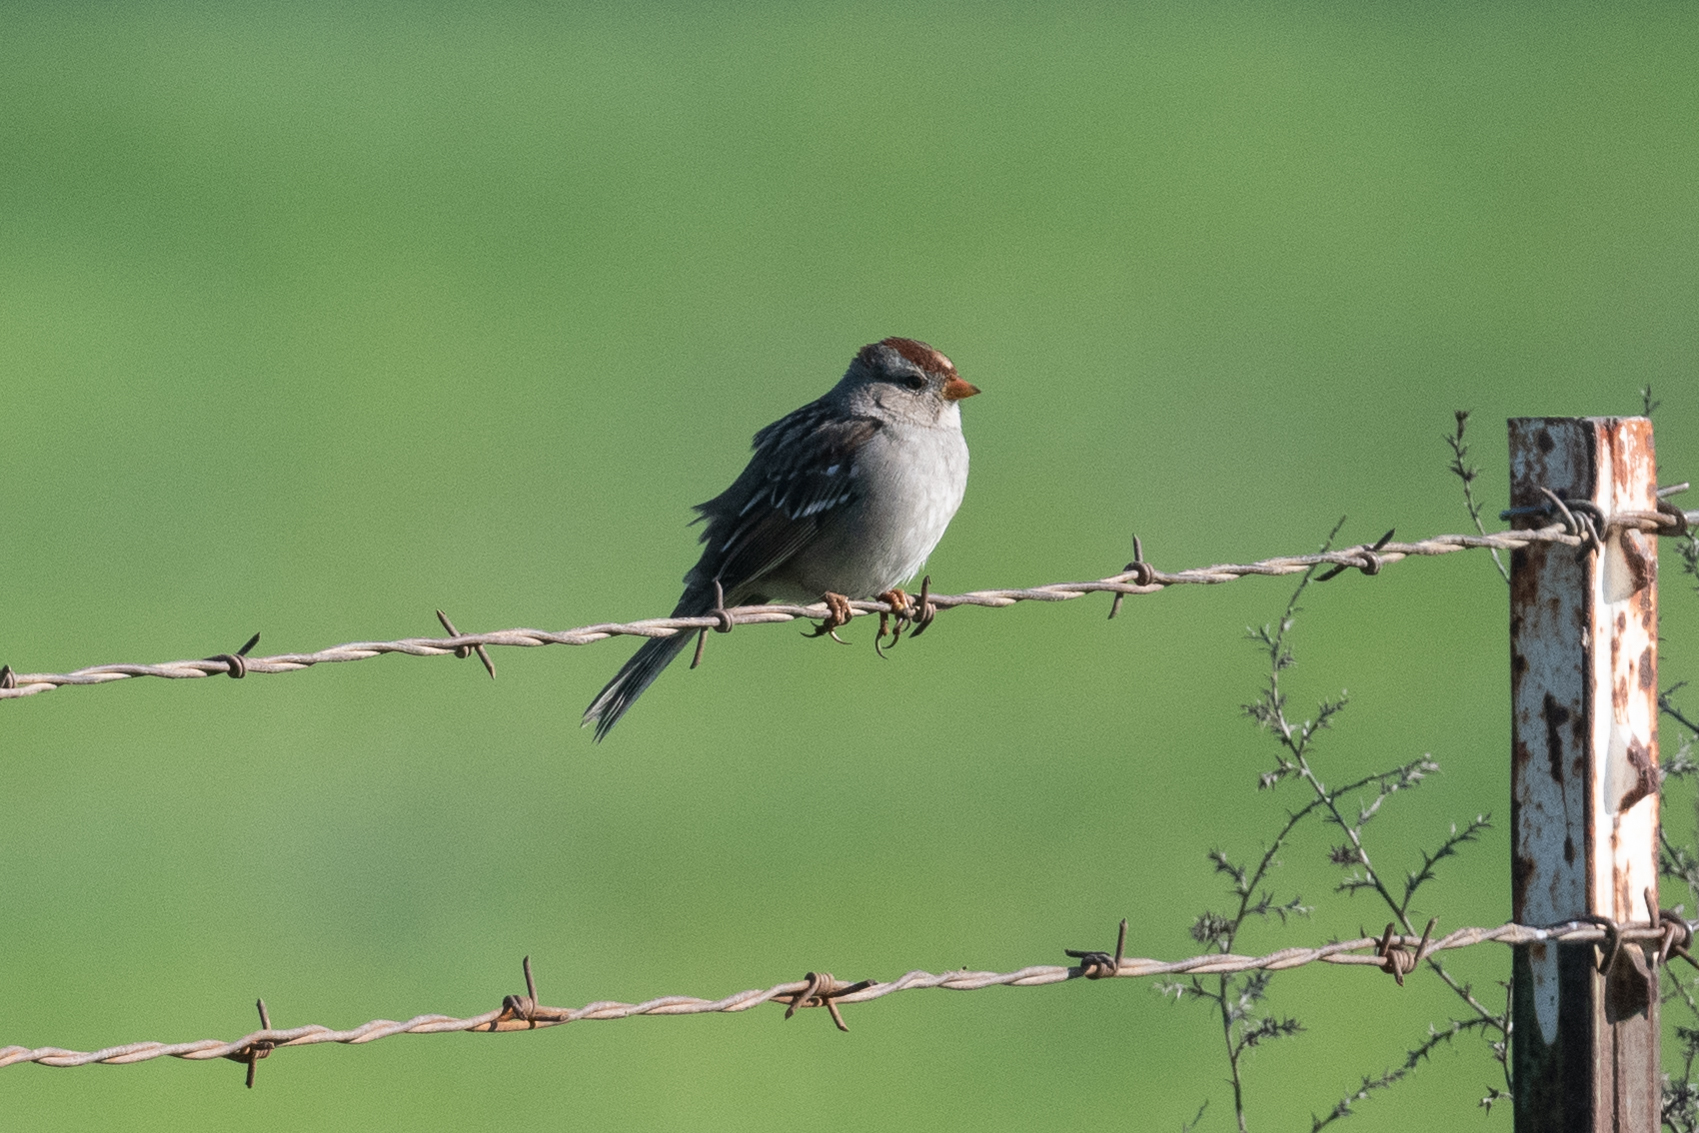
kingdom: Animalia
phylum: Chordata
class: Aves
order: Passeriformes
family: Passerellidae
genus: Zonotrichia
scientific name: Zonotrichia leucophrys
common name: White-crowned sparrow
